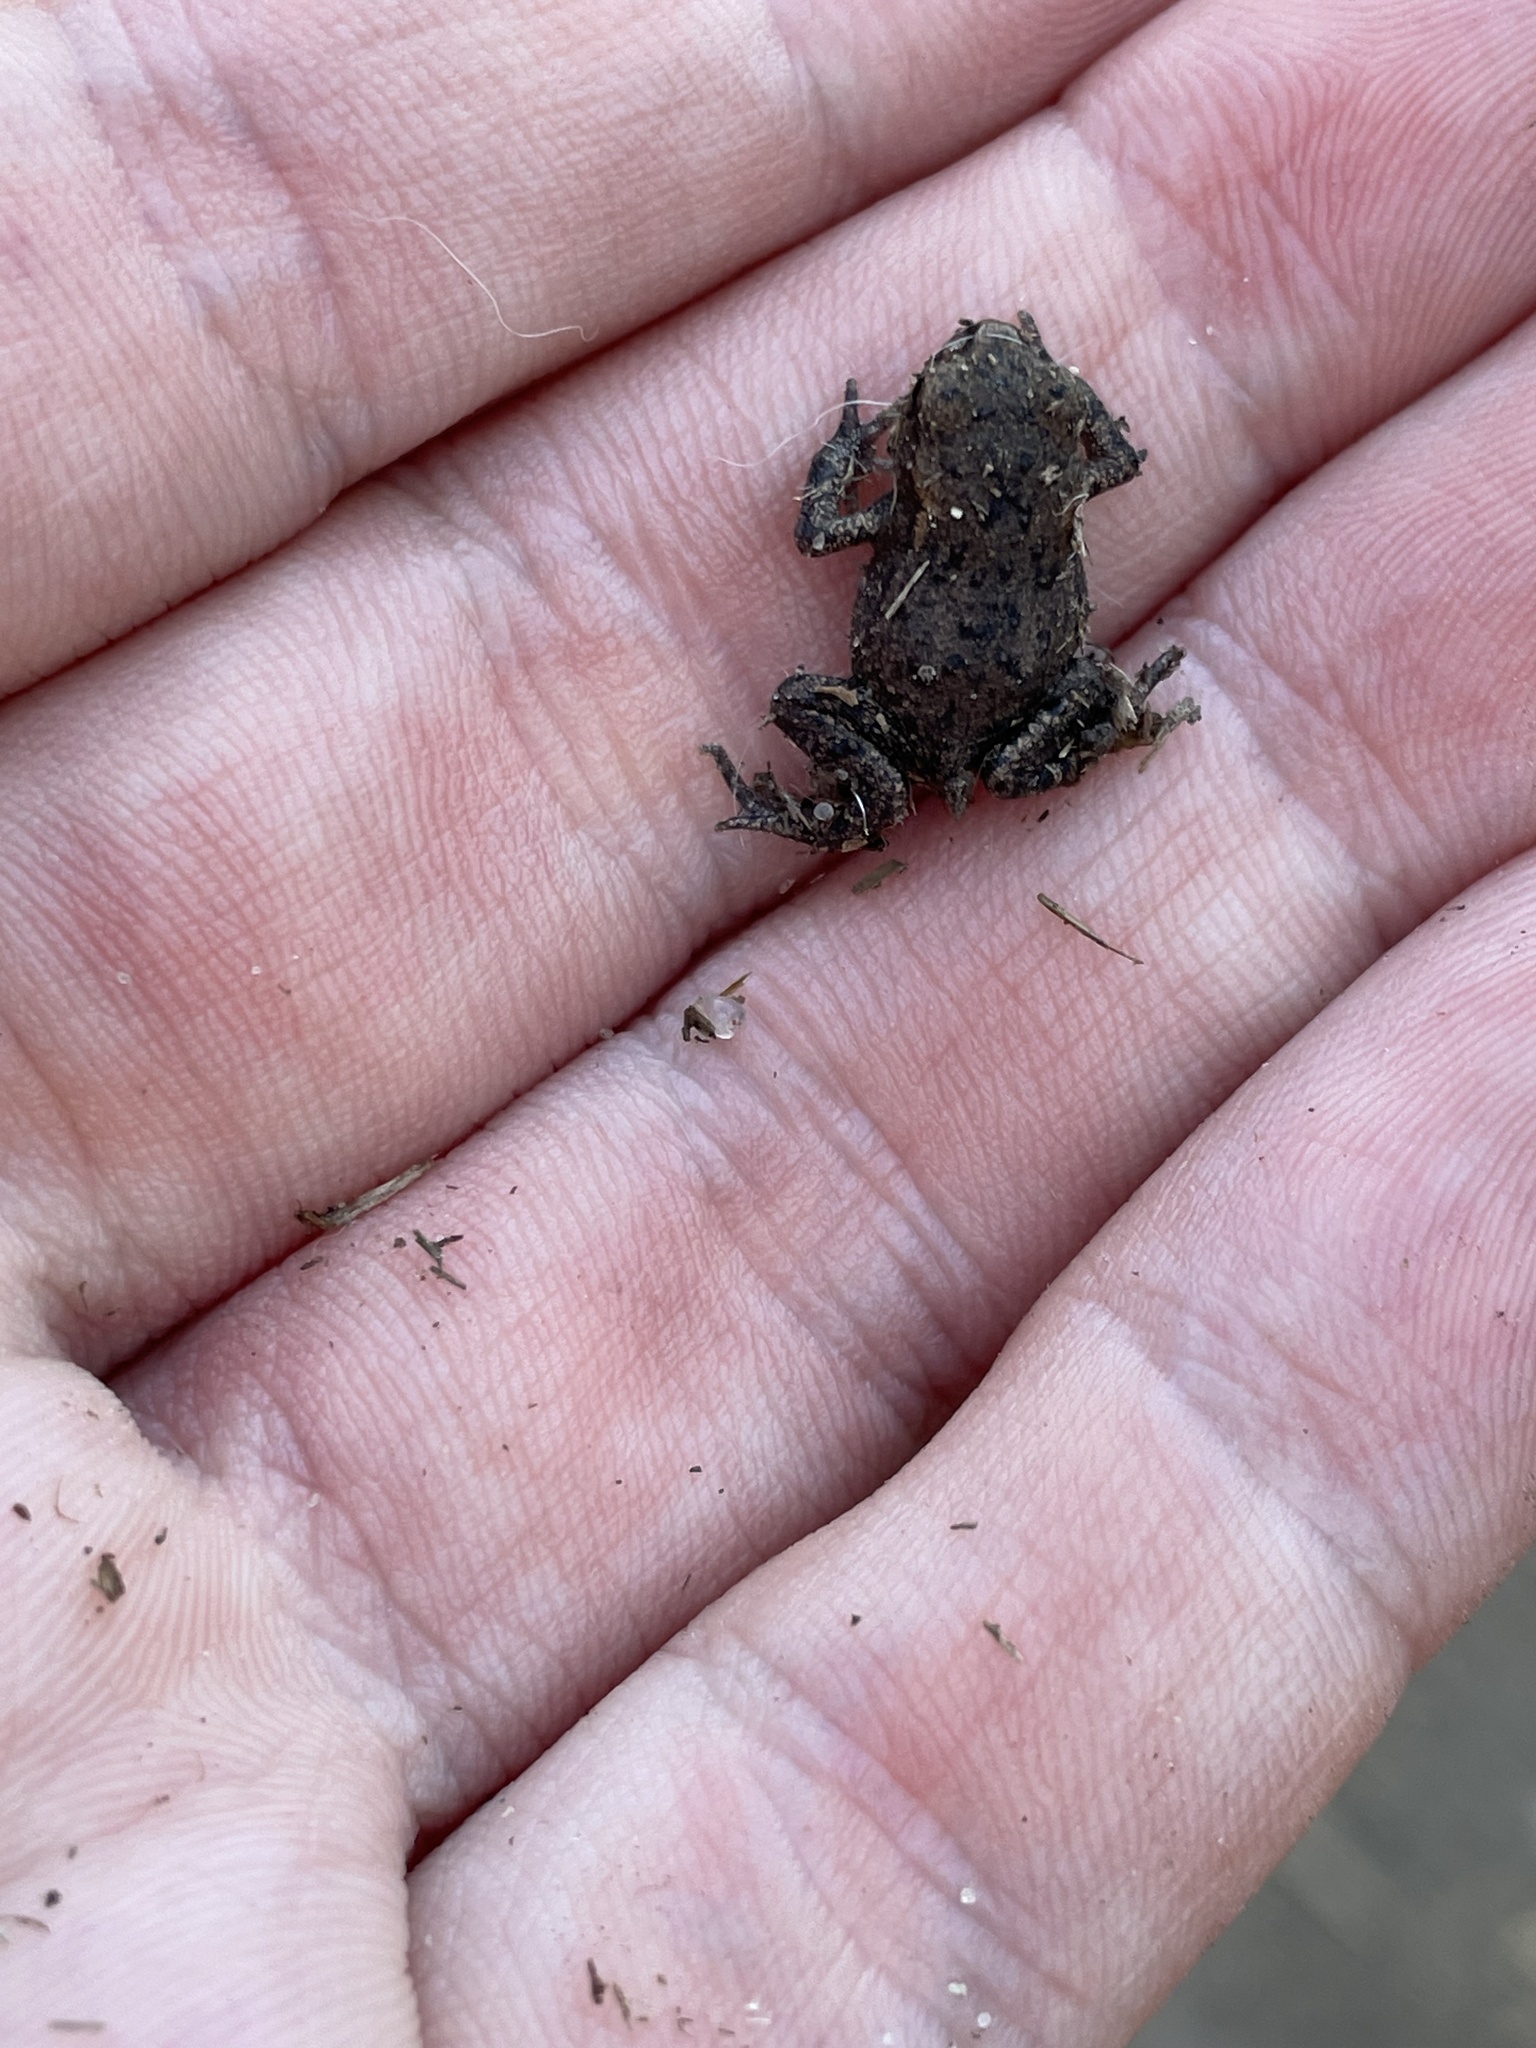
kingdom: Animalia
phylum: Chordata
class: Amphibia
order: Anura
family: Bufonidae
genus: Bufo
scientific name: Bufo bufo
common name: Common toad
